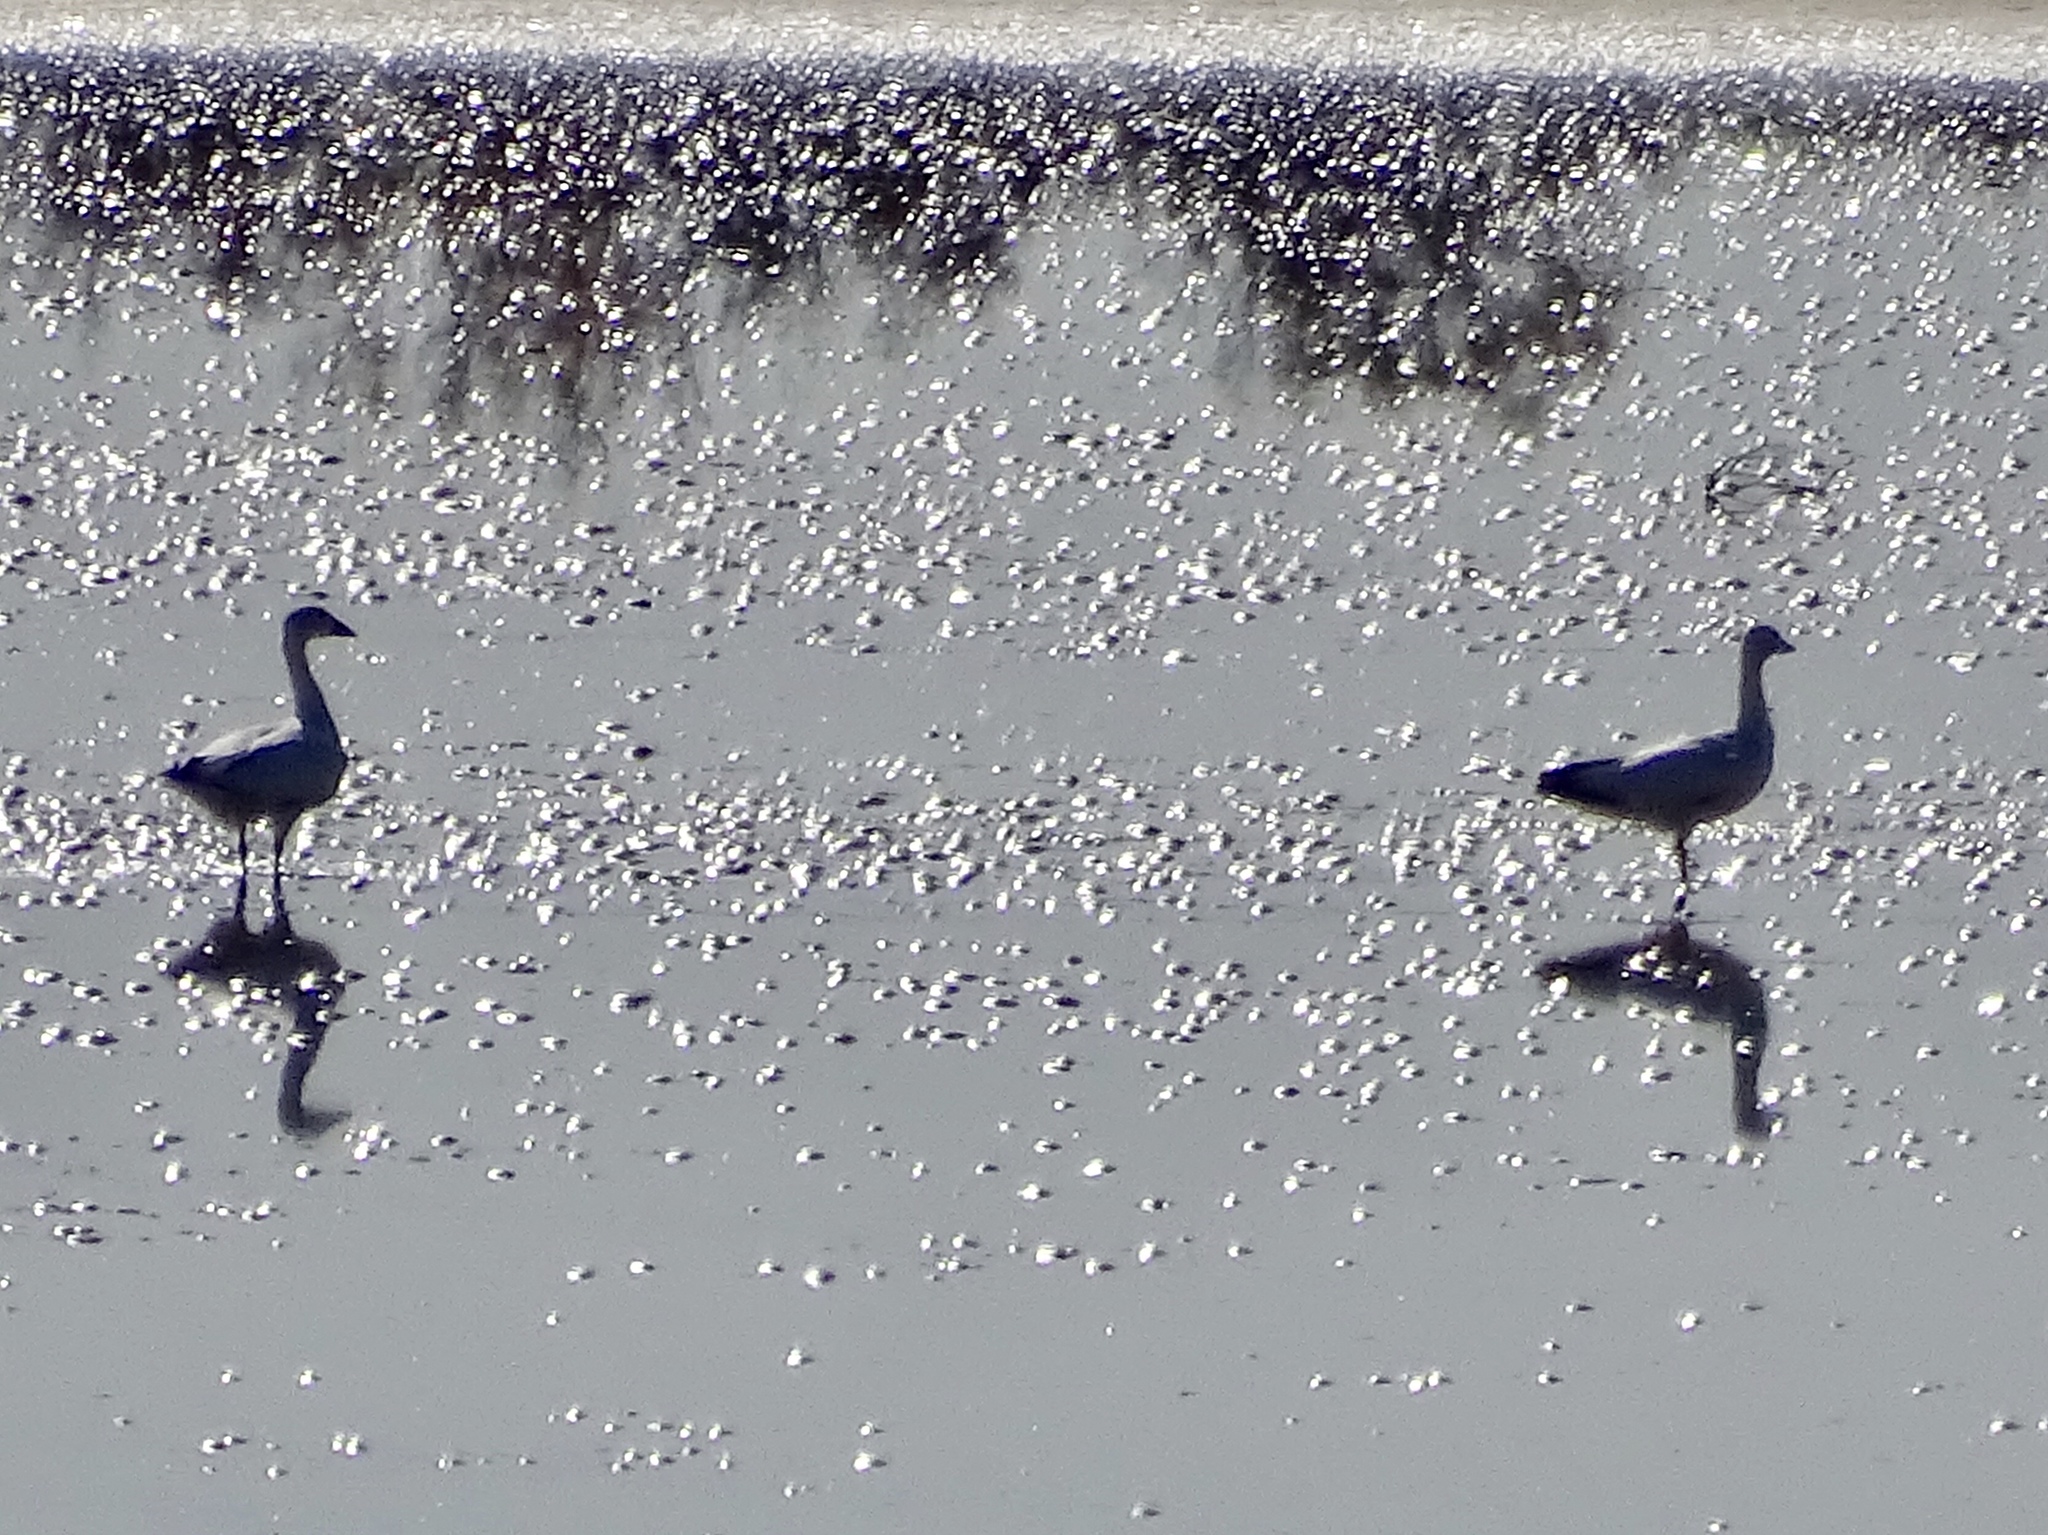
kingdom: Animalia
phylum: Chordata
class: Aves
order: Anseriformes
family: Anatidae
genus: Anser
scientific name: Anser caerulescens
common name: Snow goose
